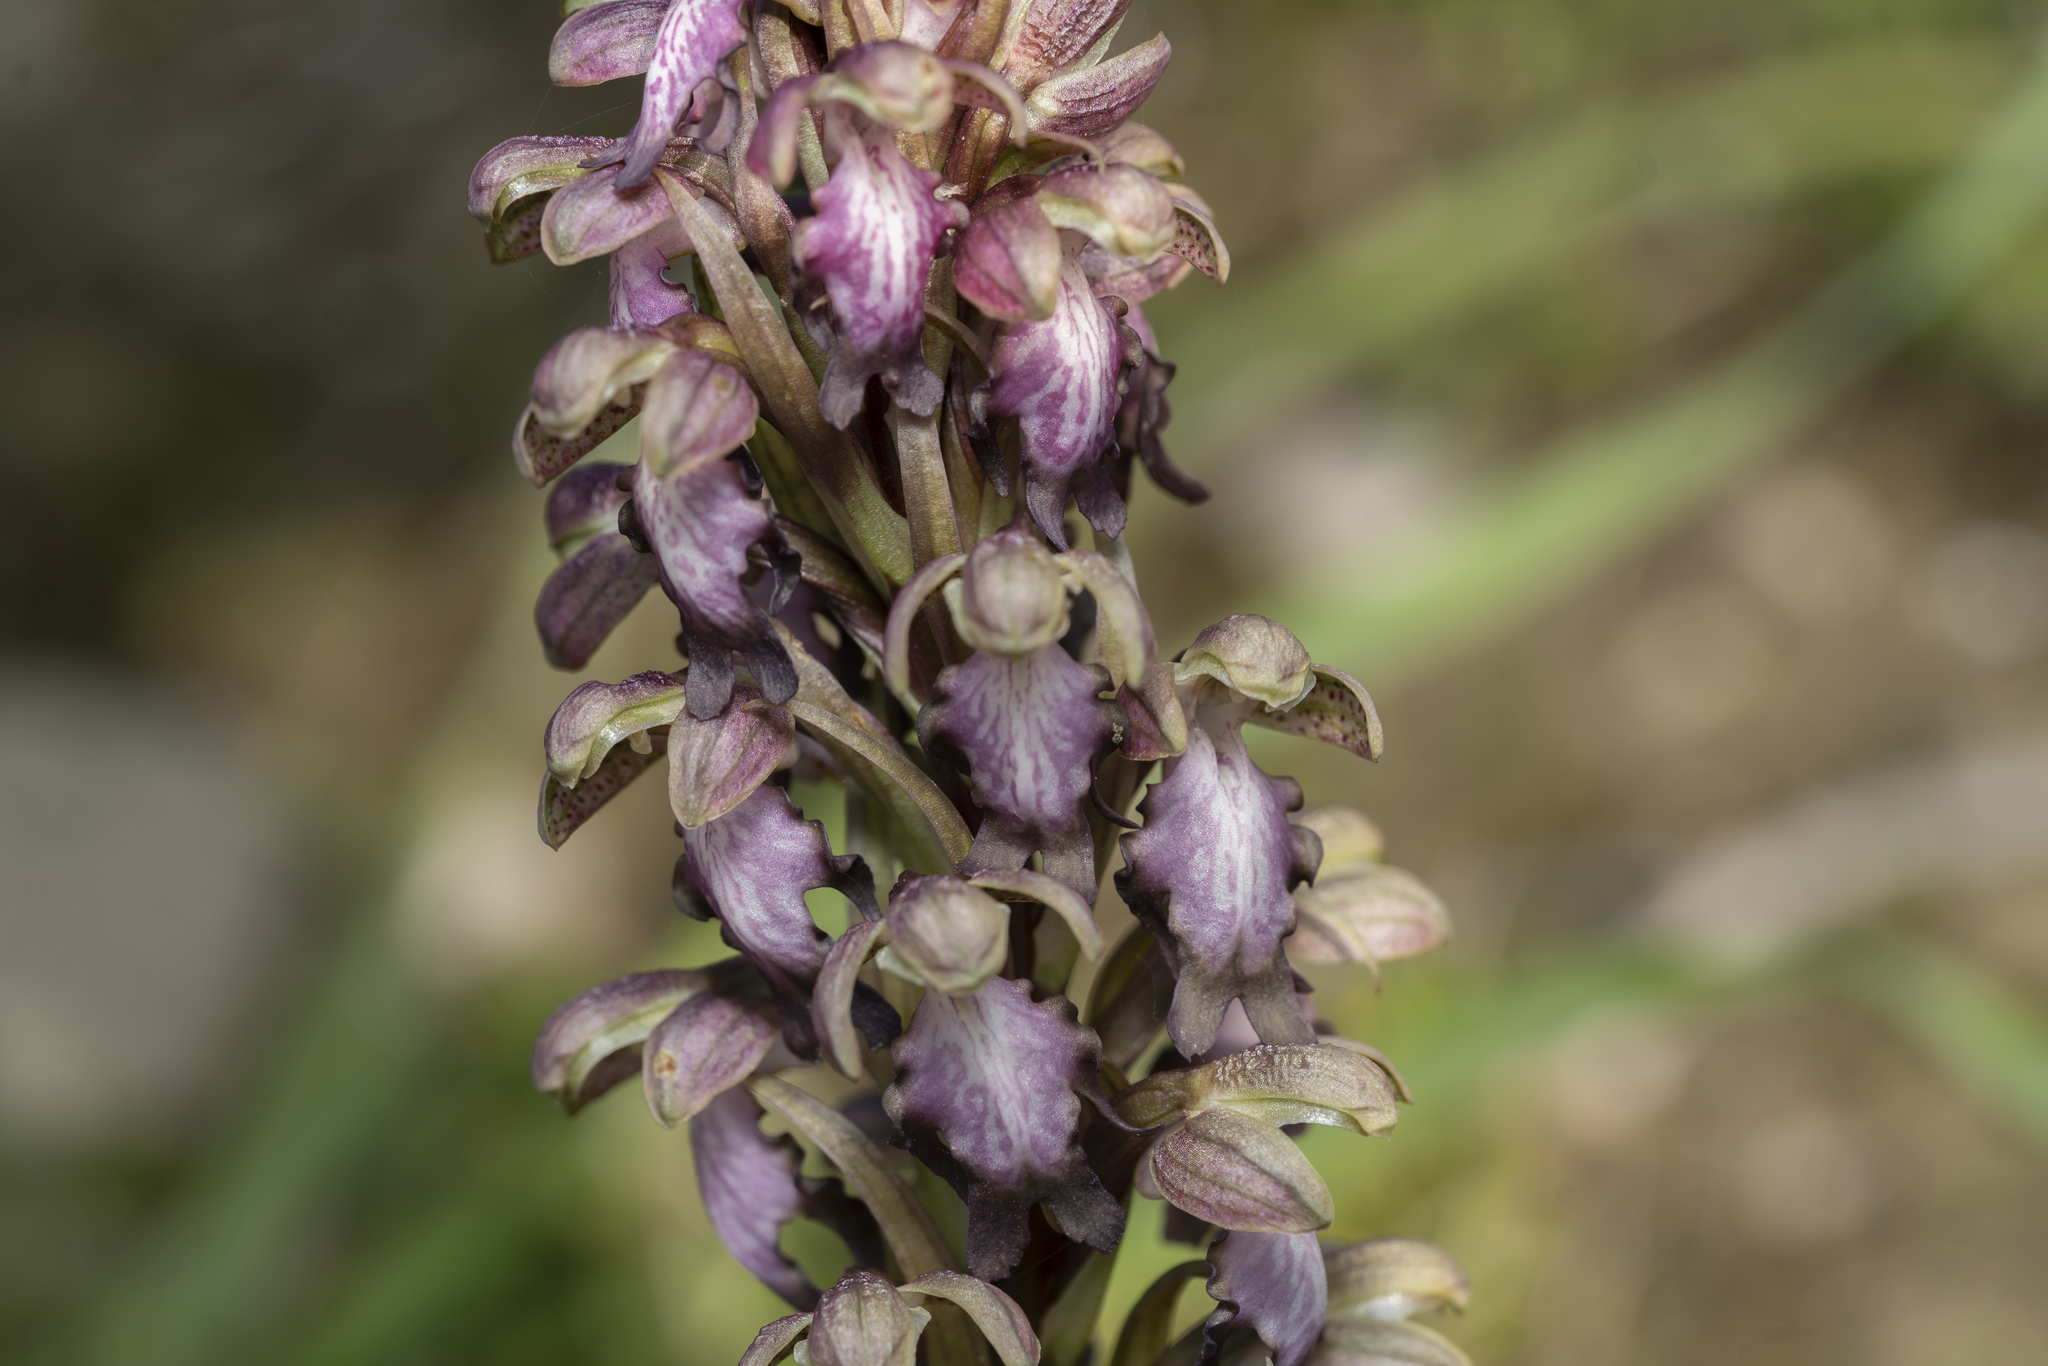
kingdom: Plantae
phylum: Tracheophyta
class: Liliopsida
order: Asparagales
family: Orchidaceae
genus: Himantoglossum
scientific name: Himantoglossum robertianum
